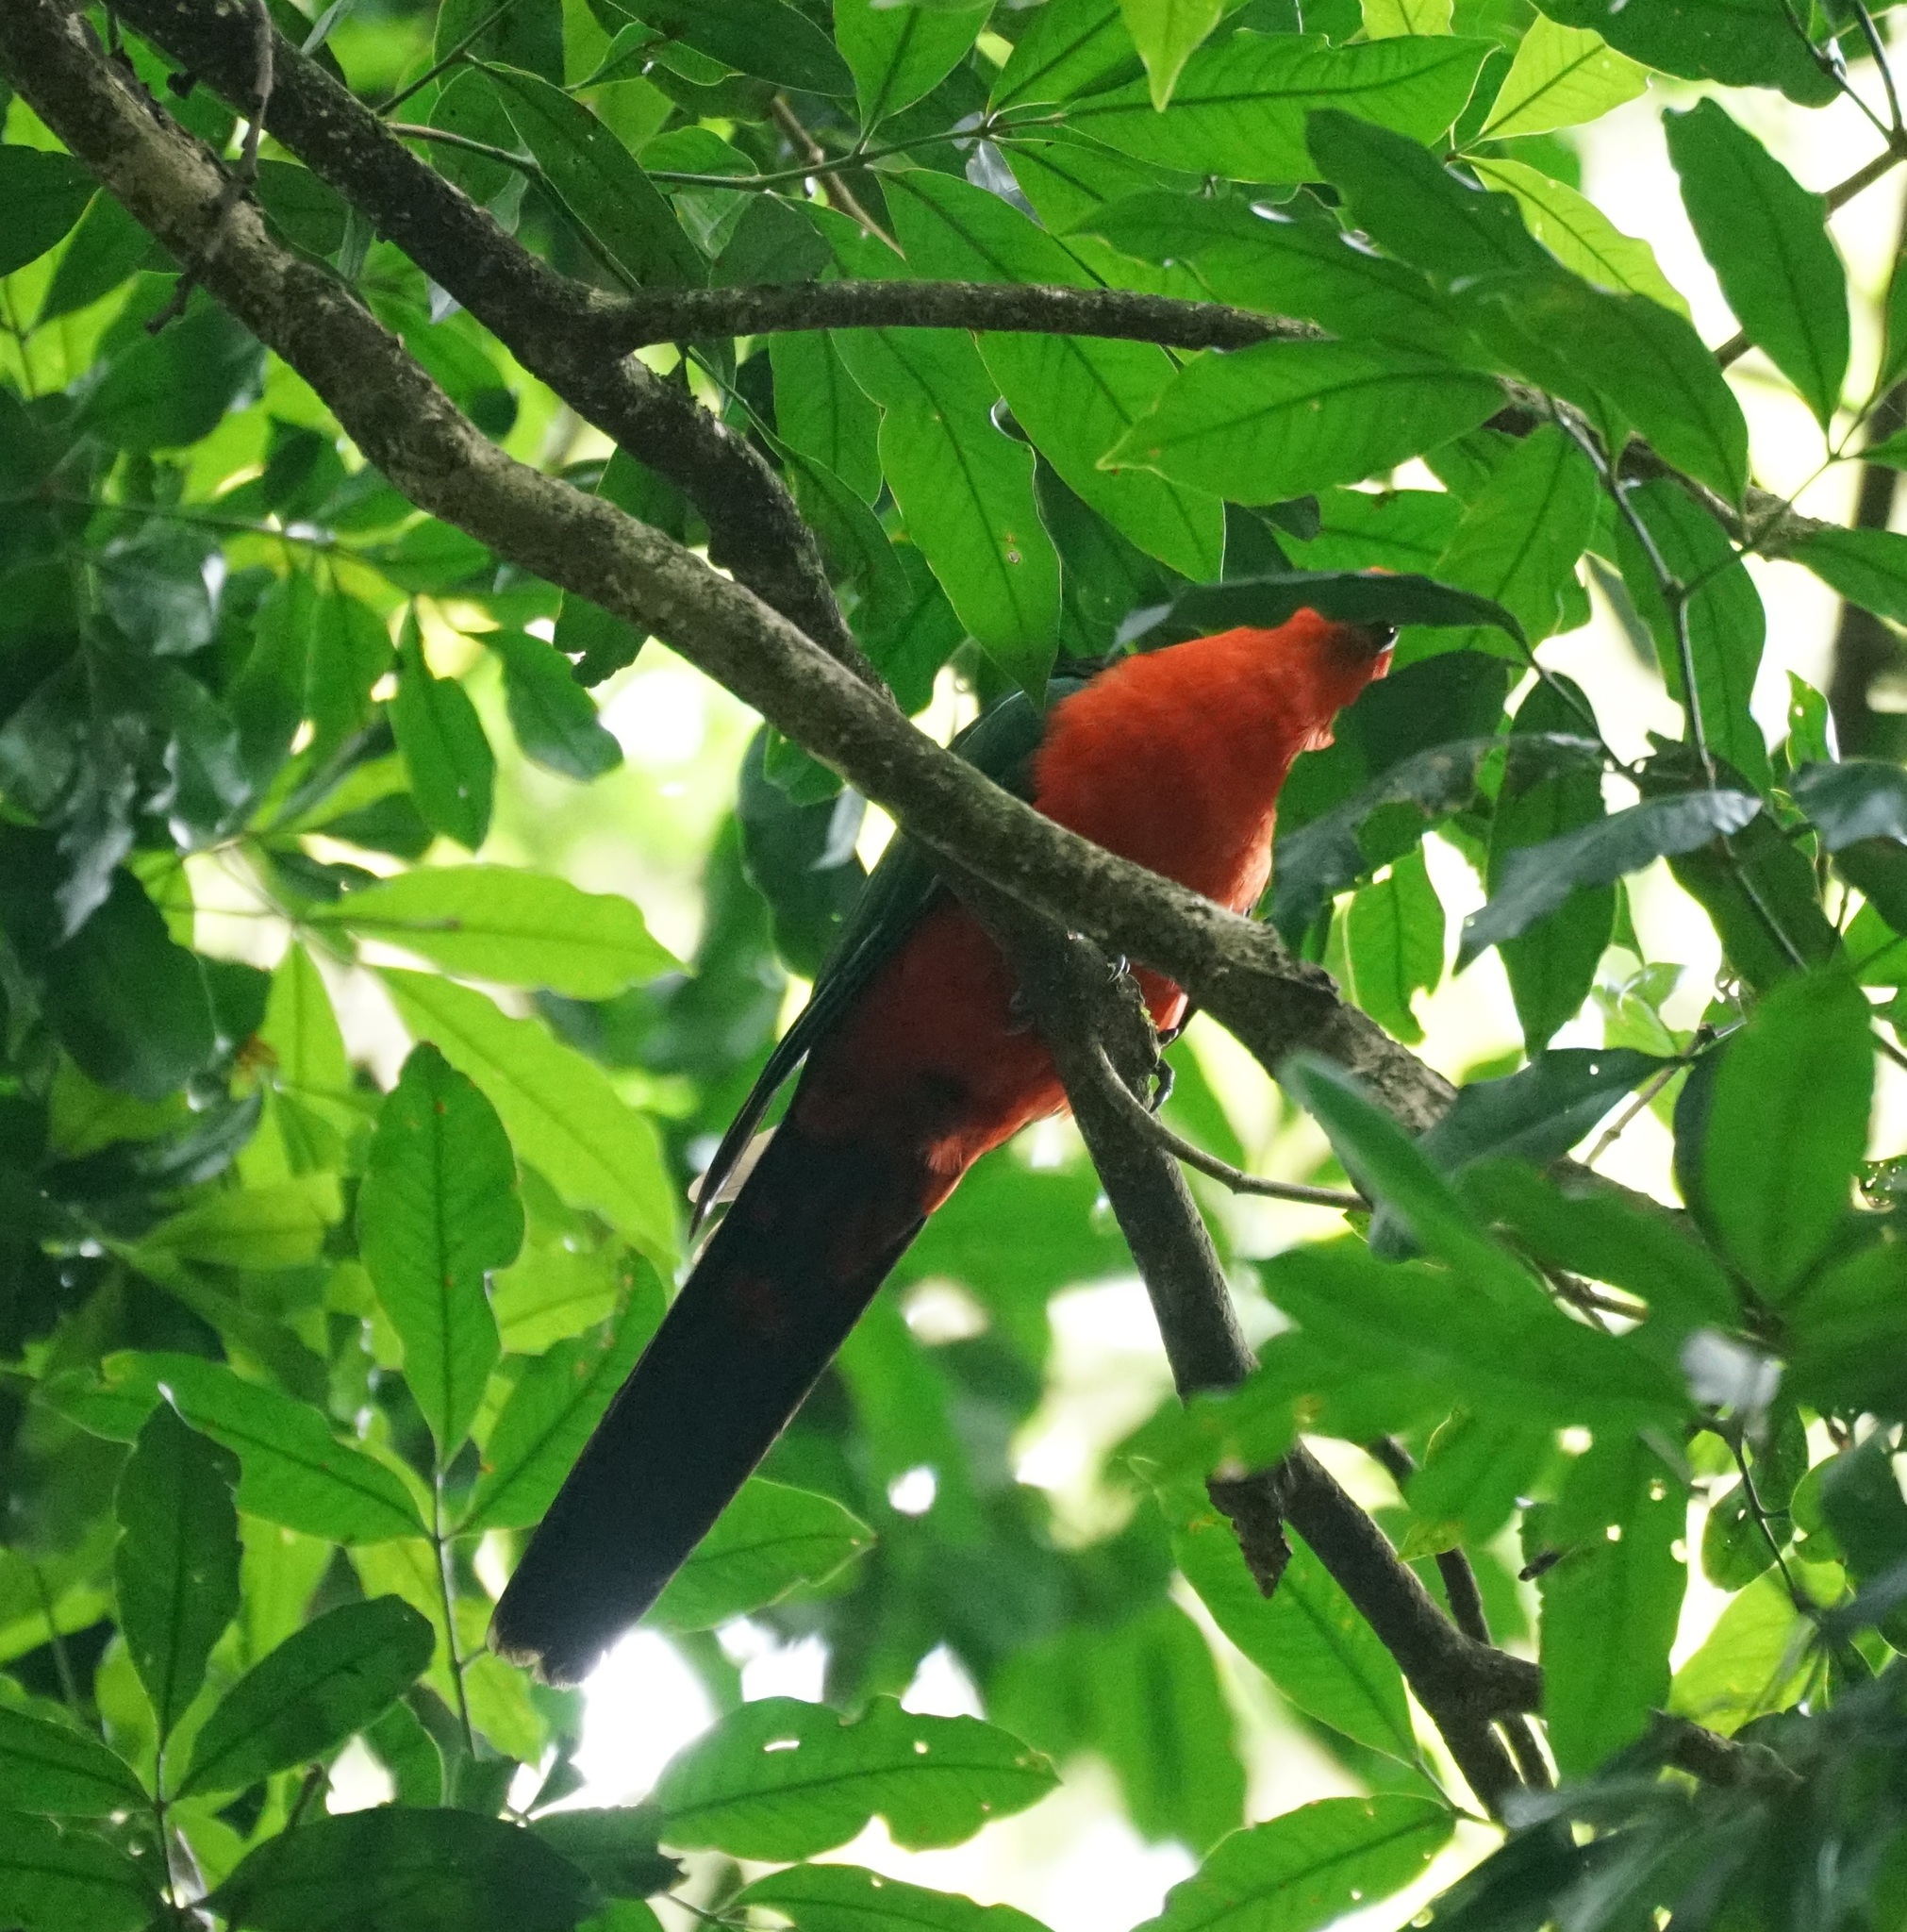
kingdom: Animalia
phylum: Chordata
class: Aves
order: Psittaciformes
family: Psittacidae
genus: Alisterus
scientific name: Alisterus scapularis
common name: Australian king parrot
